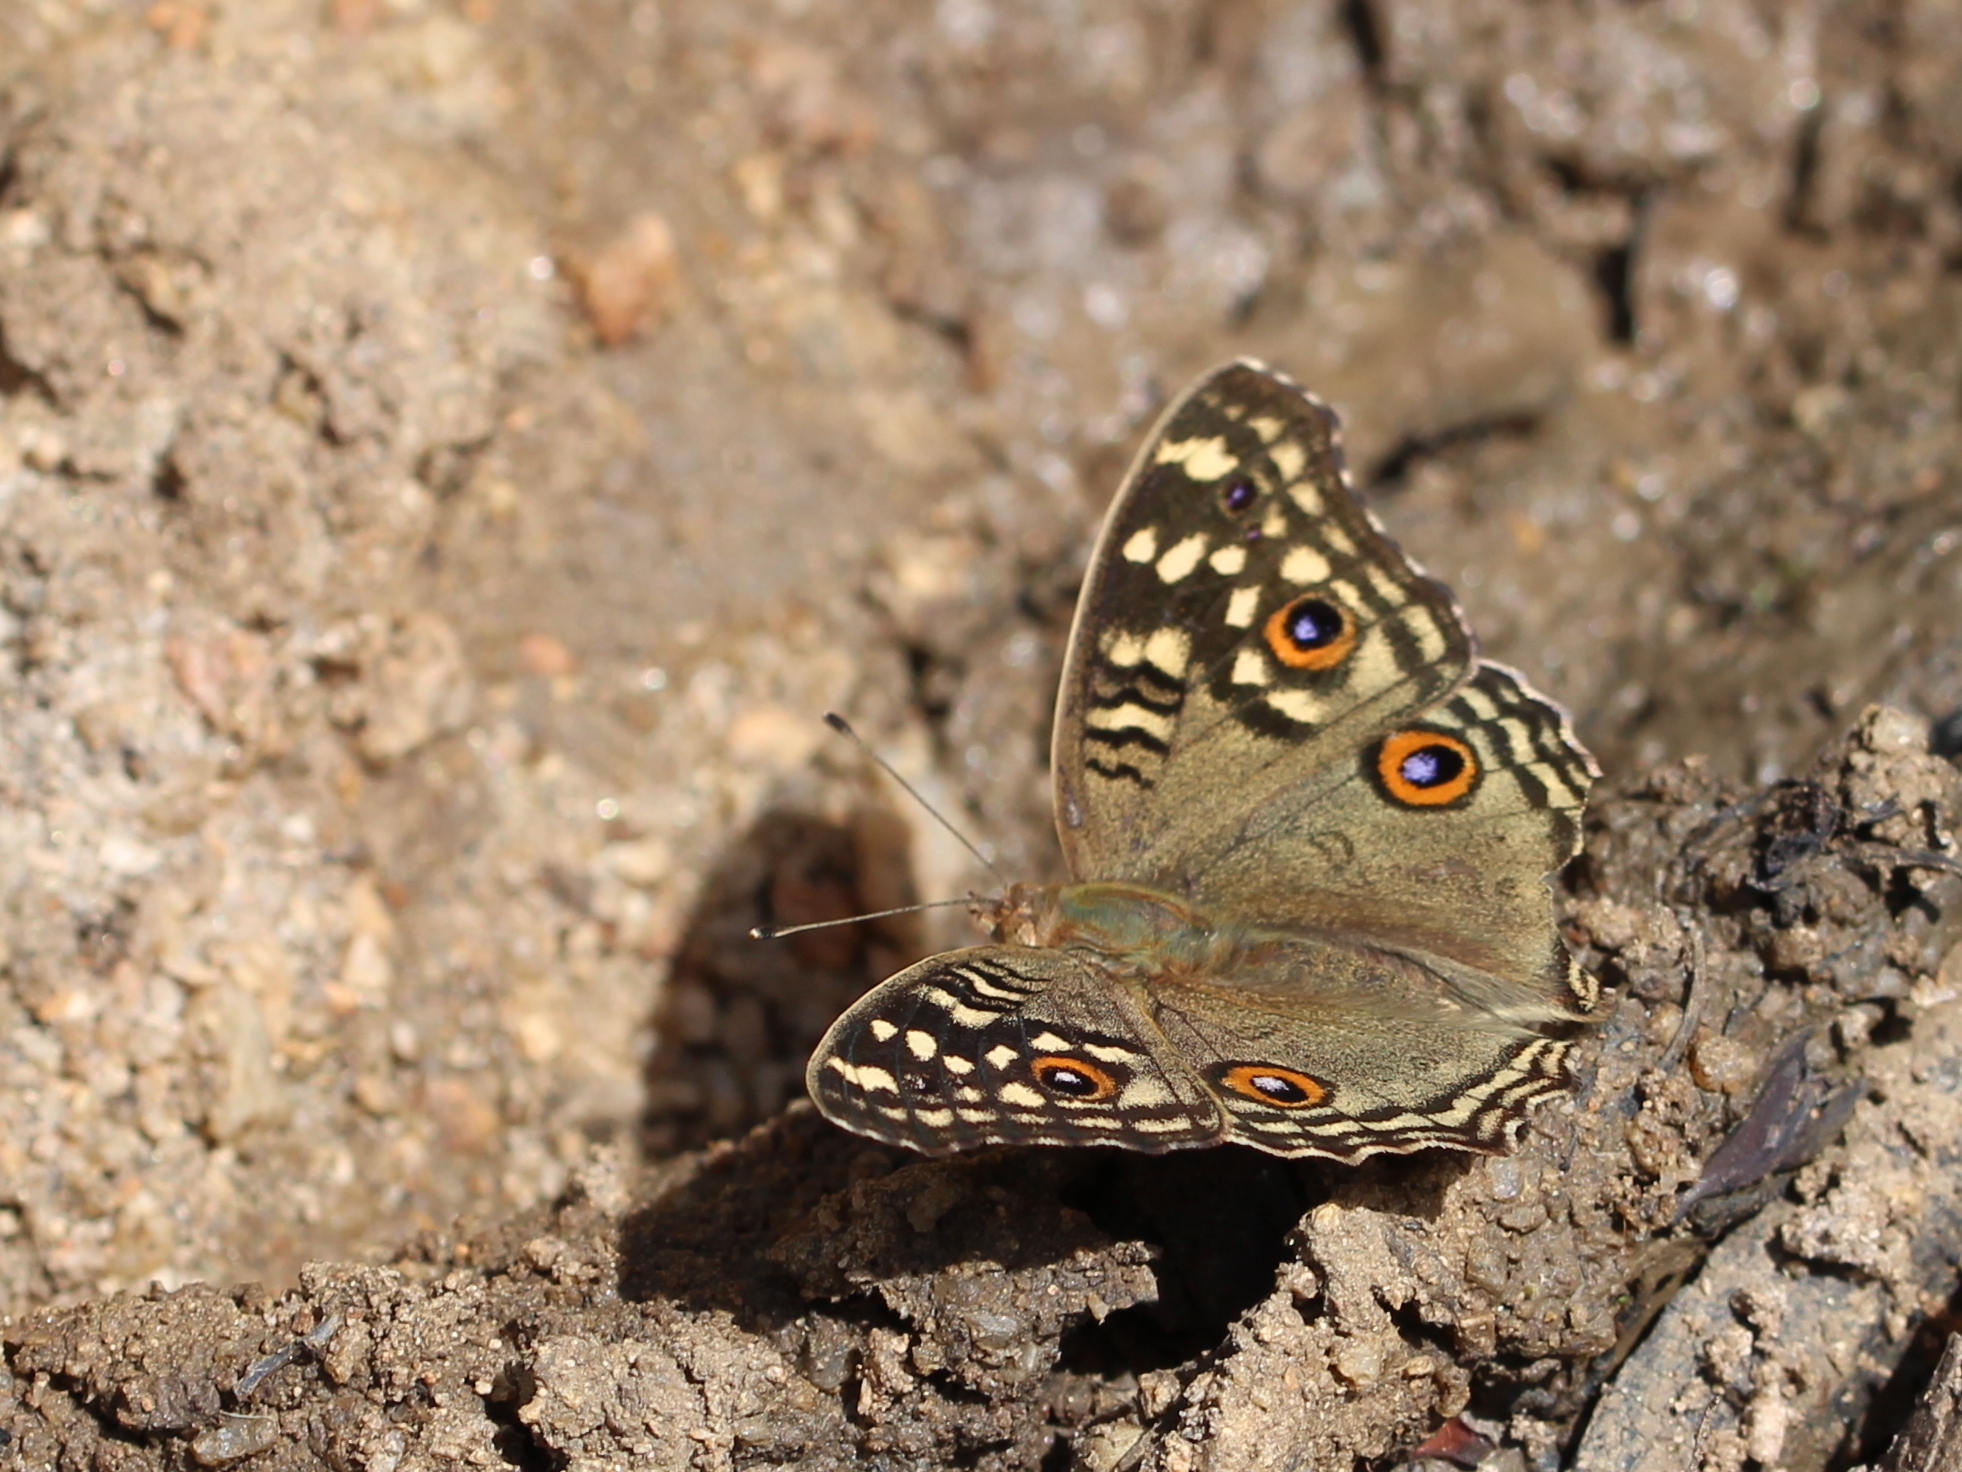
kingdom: Animalia
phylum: Arthropoda
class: Insecta
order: Lepidoptera
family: Nymphalidae
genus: Junonia
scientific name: Junonia lemonias
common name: Lemon pansy
